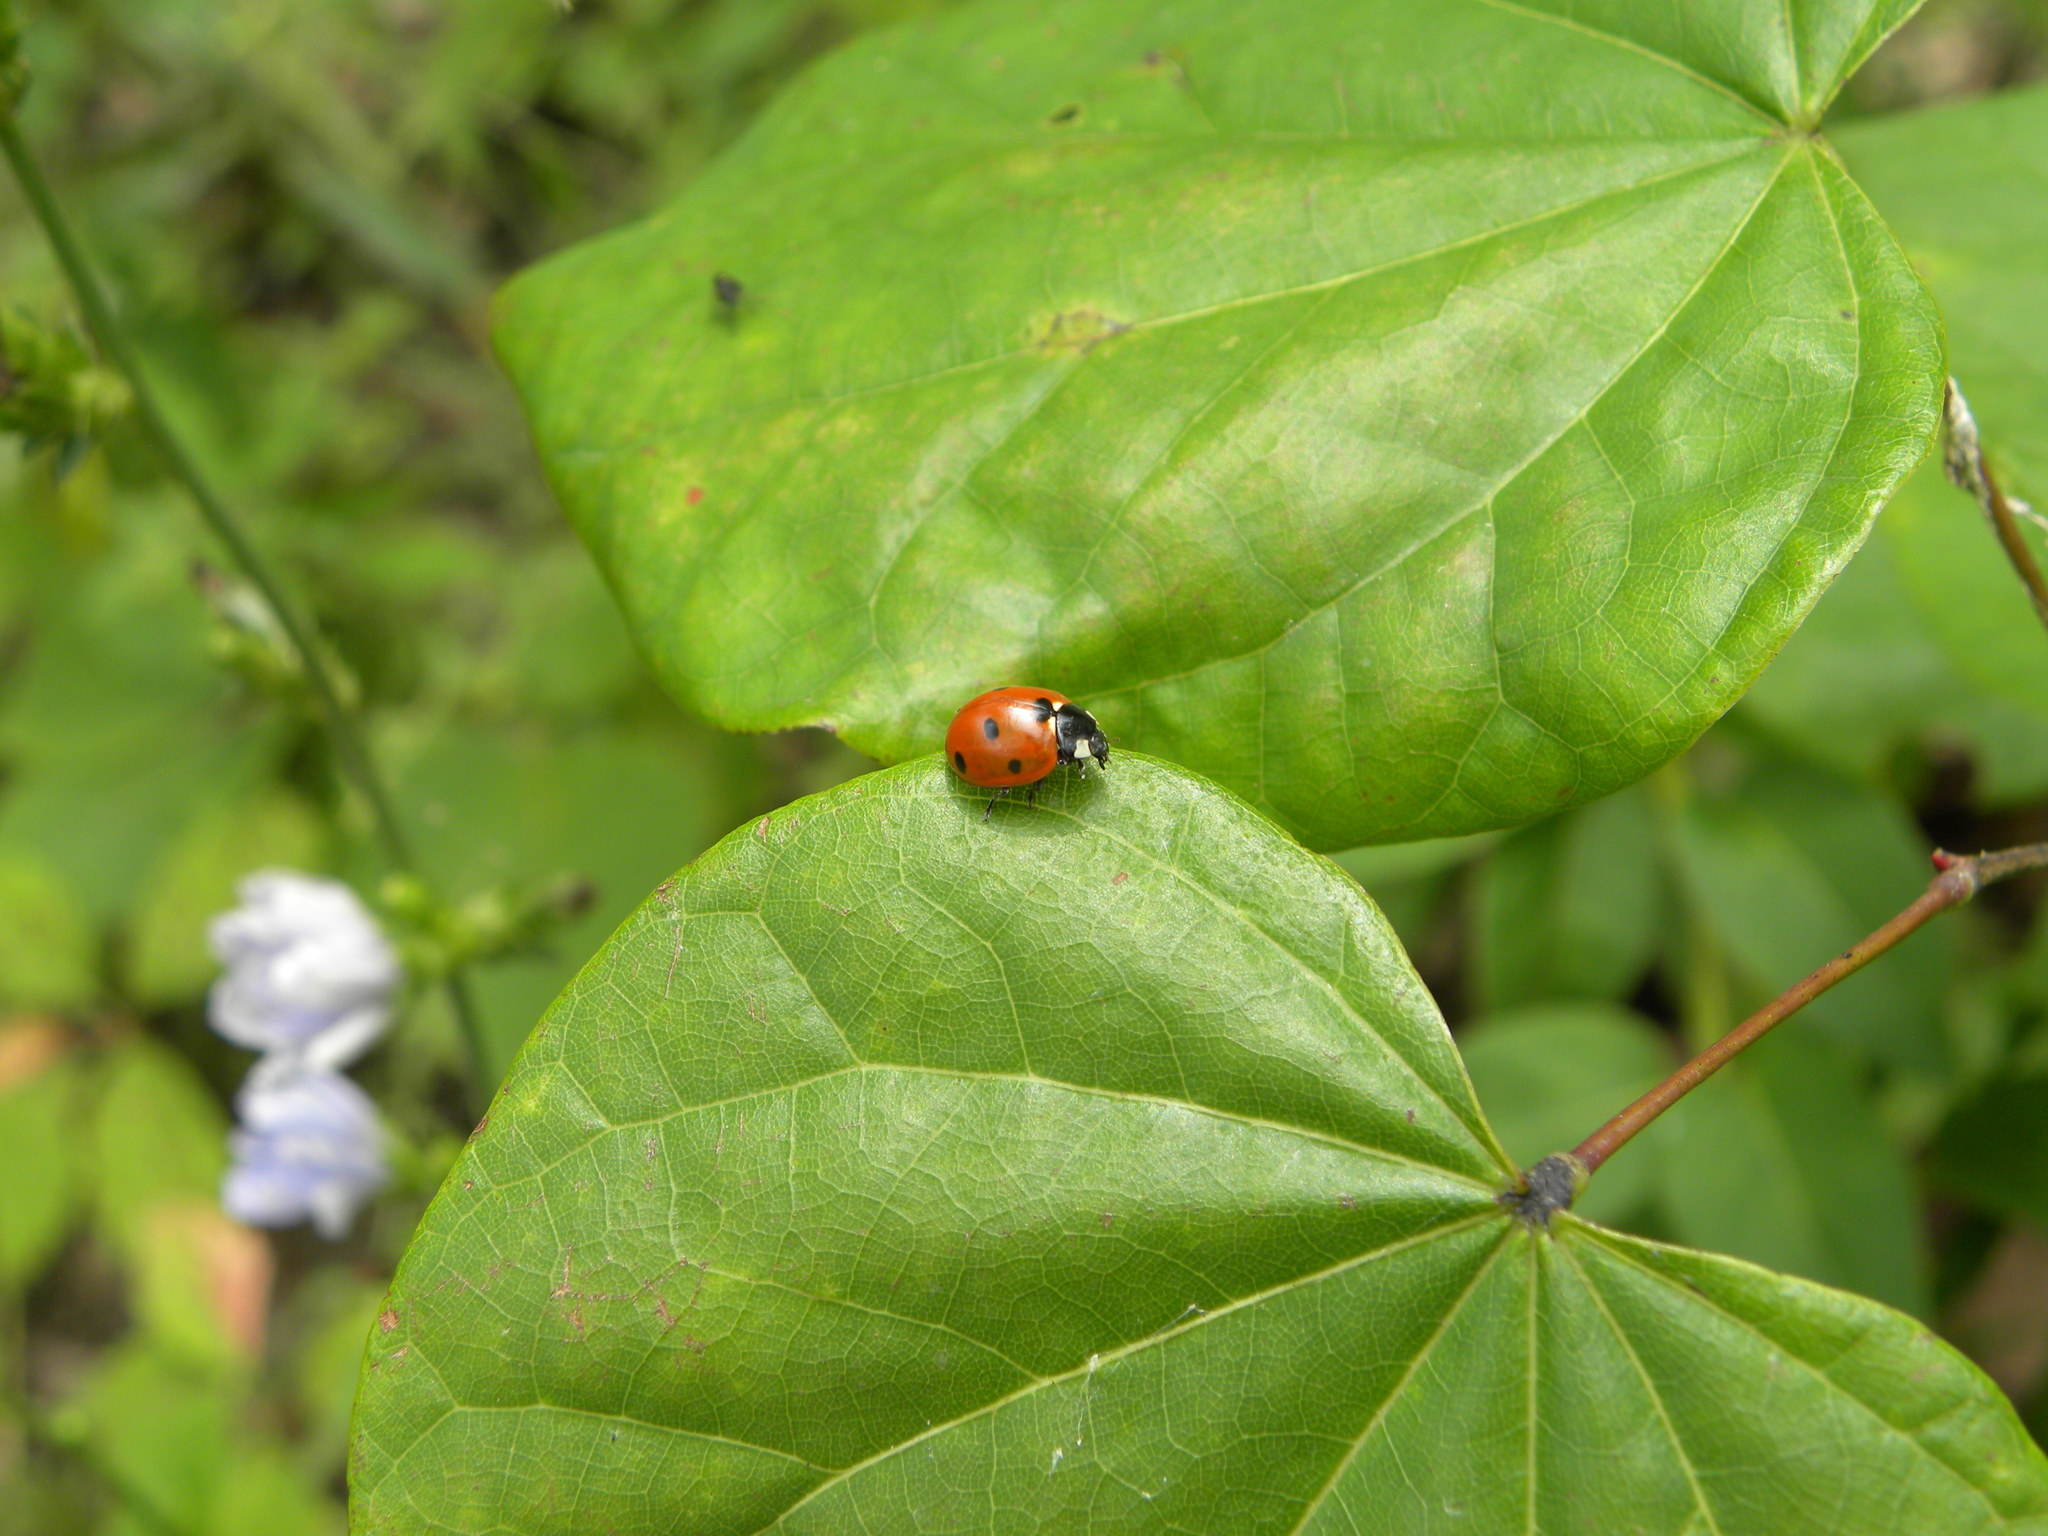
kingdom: Animalia
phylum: Arthropoda
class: Insecta
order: Coleoptera
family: Coccinellidae
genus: Coccinella
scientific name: Coccinella septempunctata
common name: Sevenspotted lady beetle
